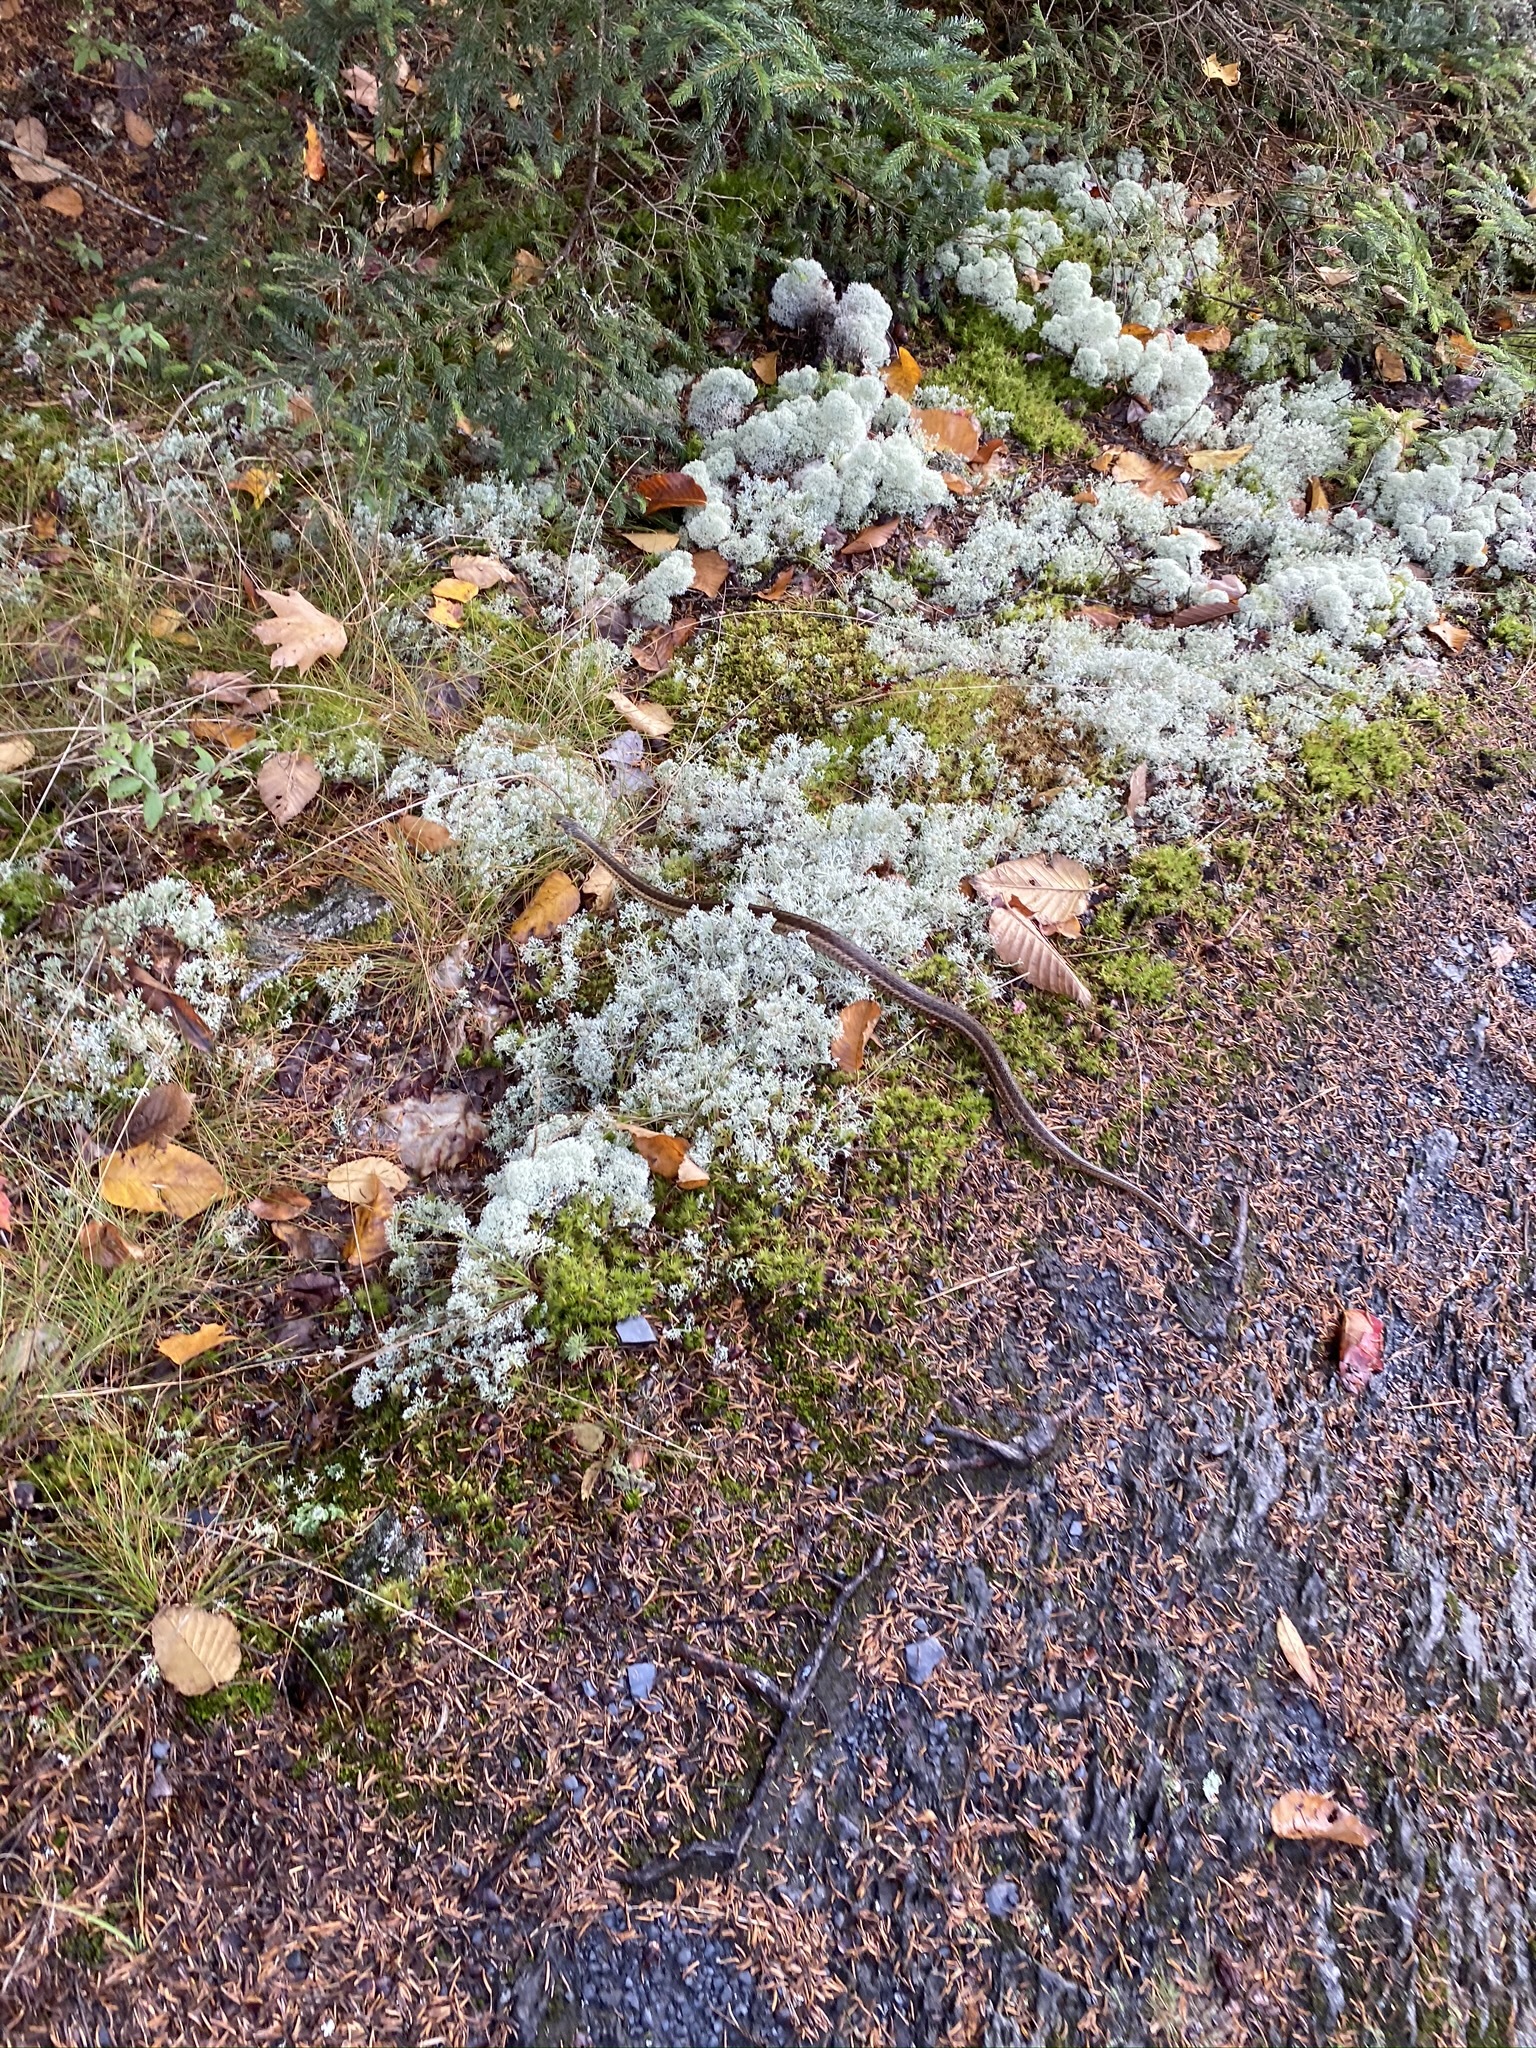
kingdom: Animalia
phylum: Chordata
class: Squamata
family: Colubridae
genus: Thamnophis
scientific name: Thamnophis sirtalis
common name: Common garter snake
